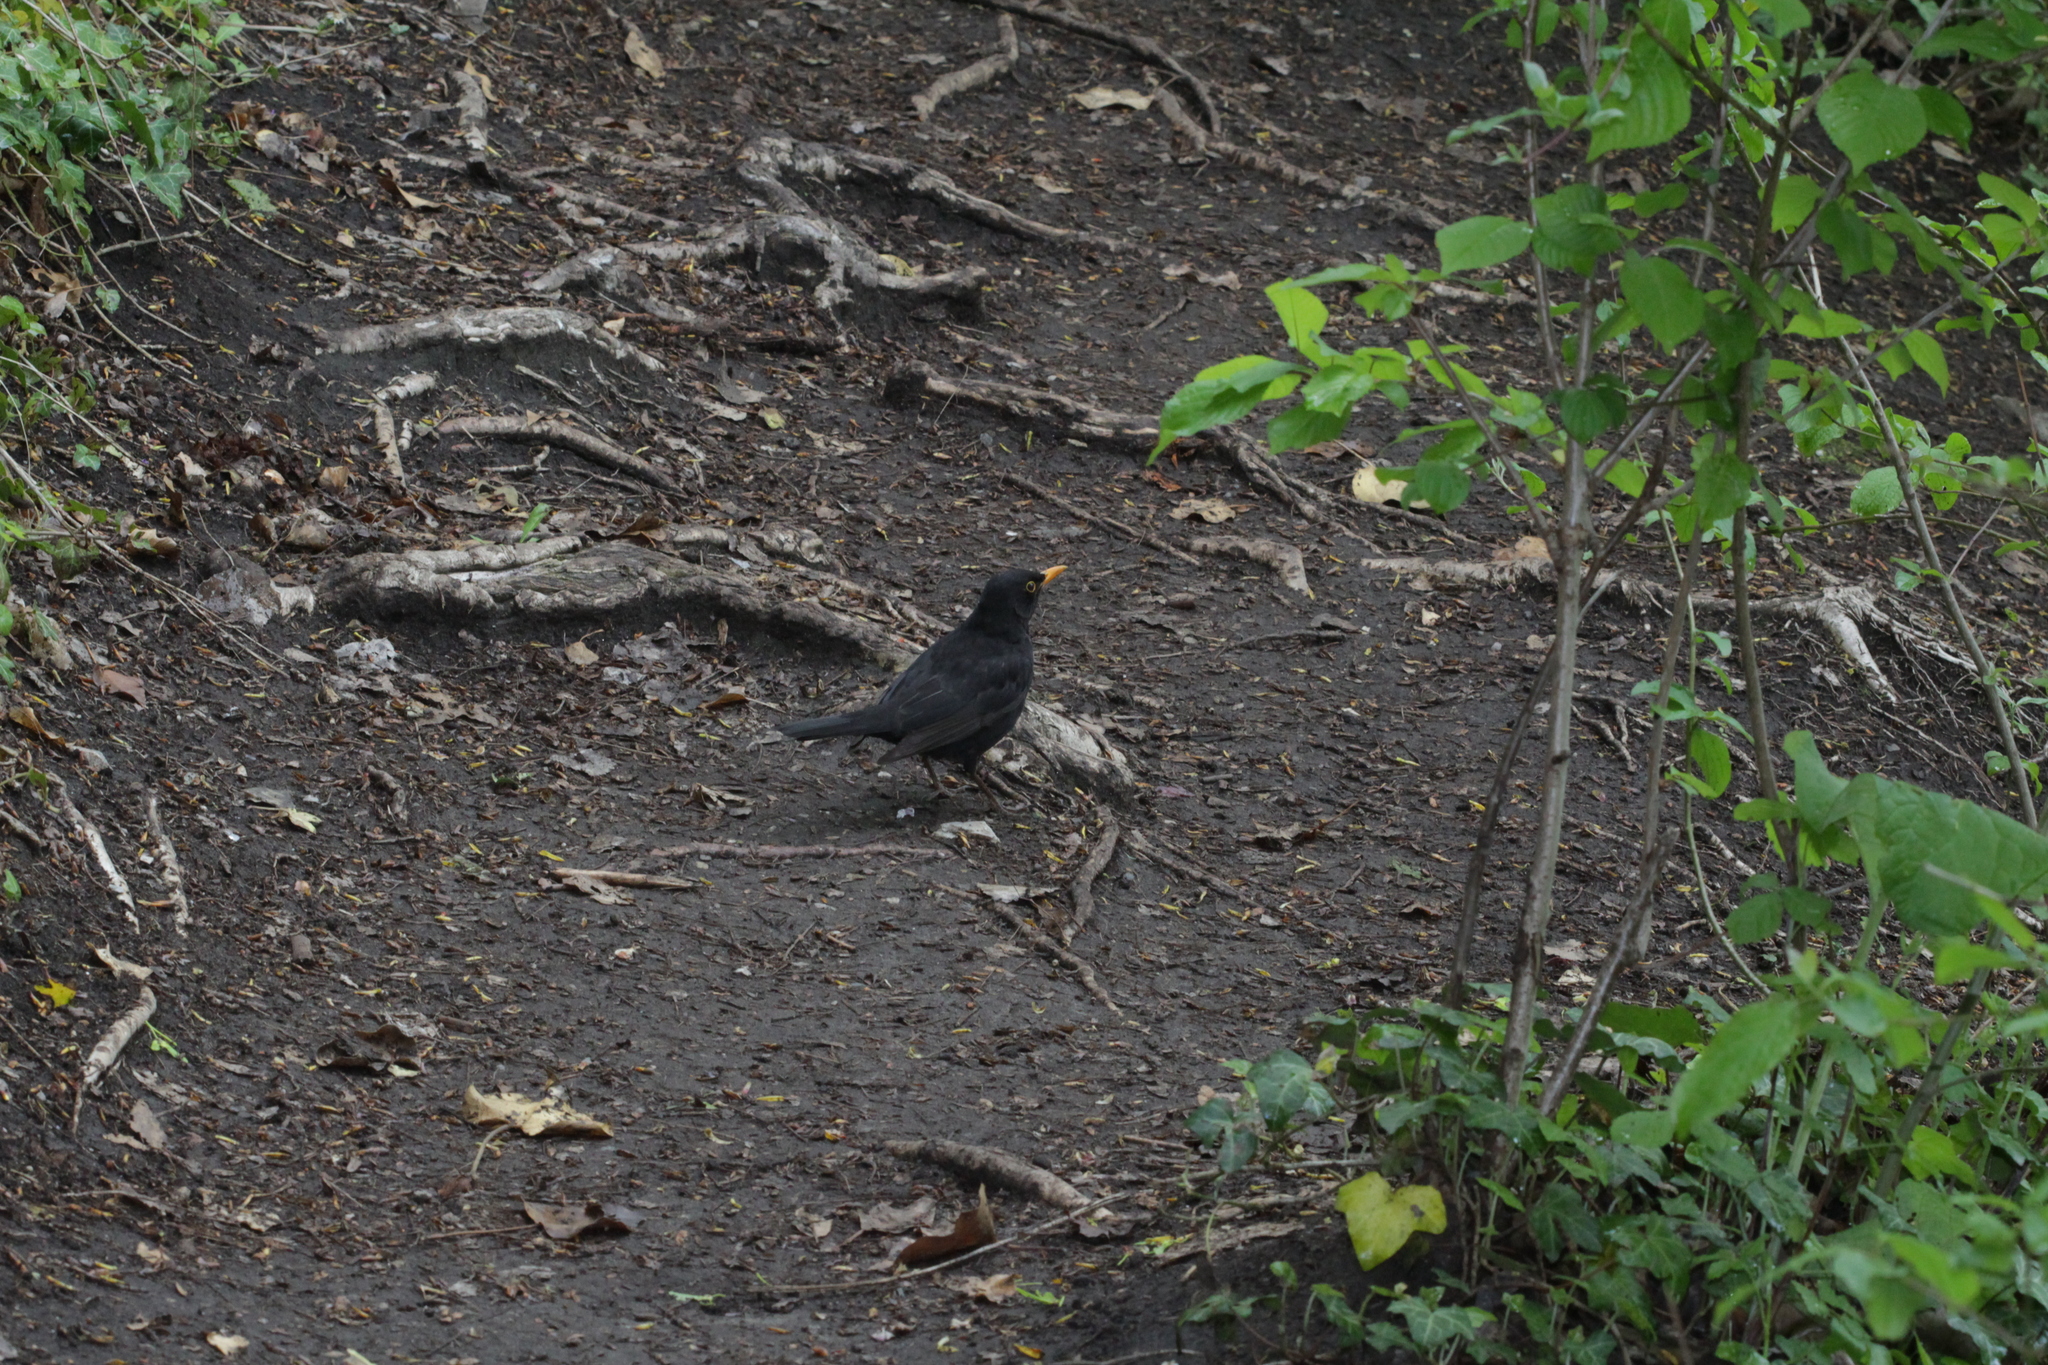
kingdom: Animalia
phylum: Chordata
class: Aves
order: Passeriformes
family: Turdidae
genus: Turdus
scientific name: Turdus merula
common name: Common blackbird
